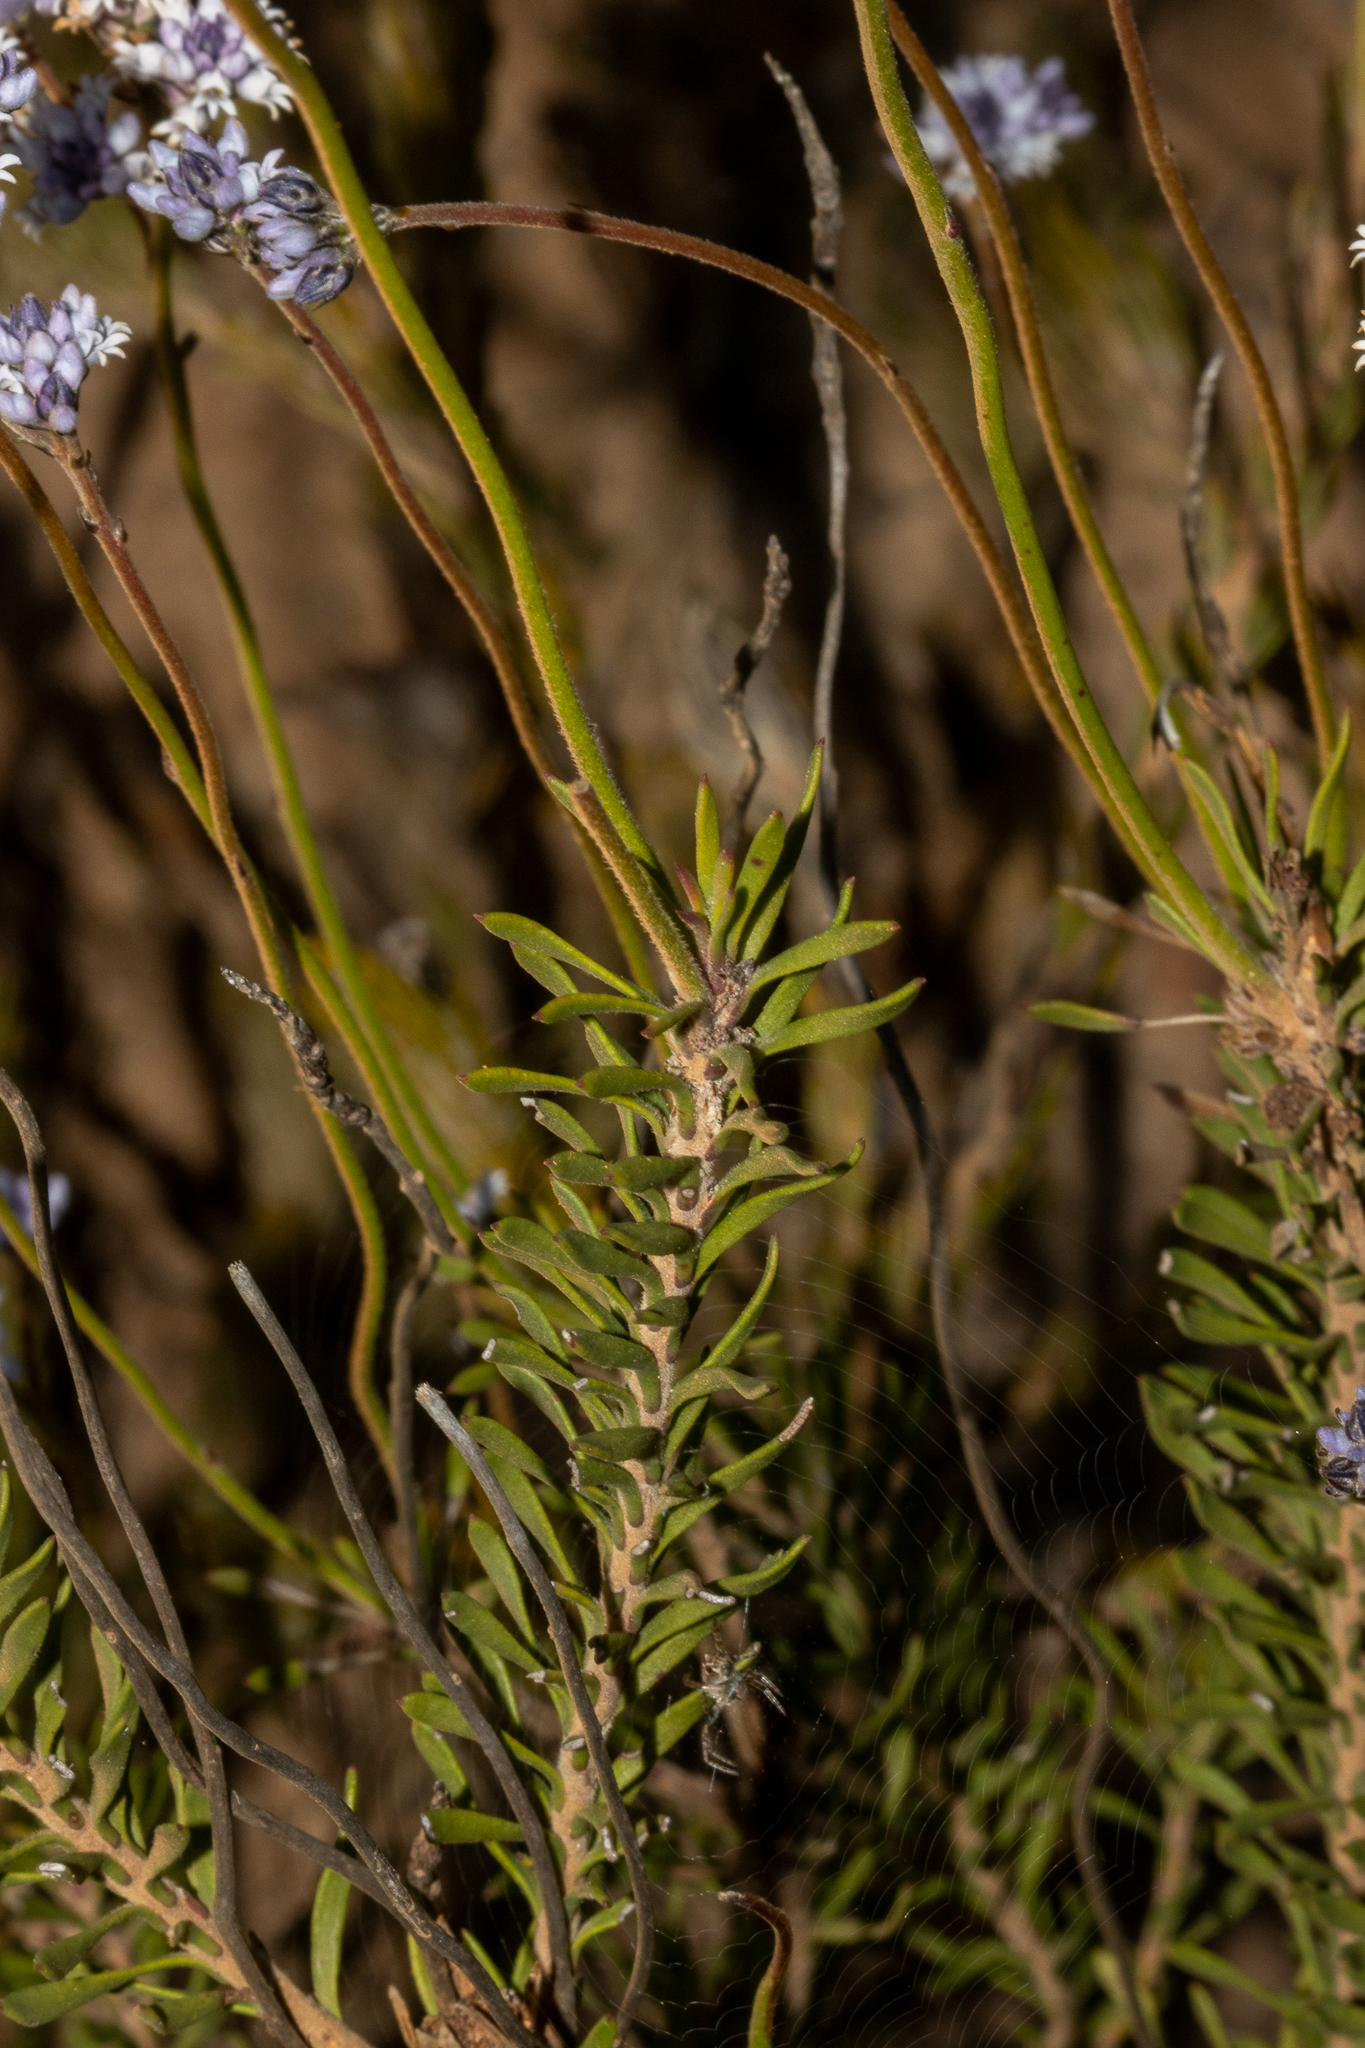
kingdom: Plantae
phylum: Tracheophyta
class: Magnoliopsida
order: Proteales
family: Proteaceae
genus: Conospermum
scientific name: Conospermum patens
